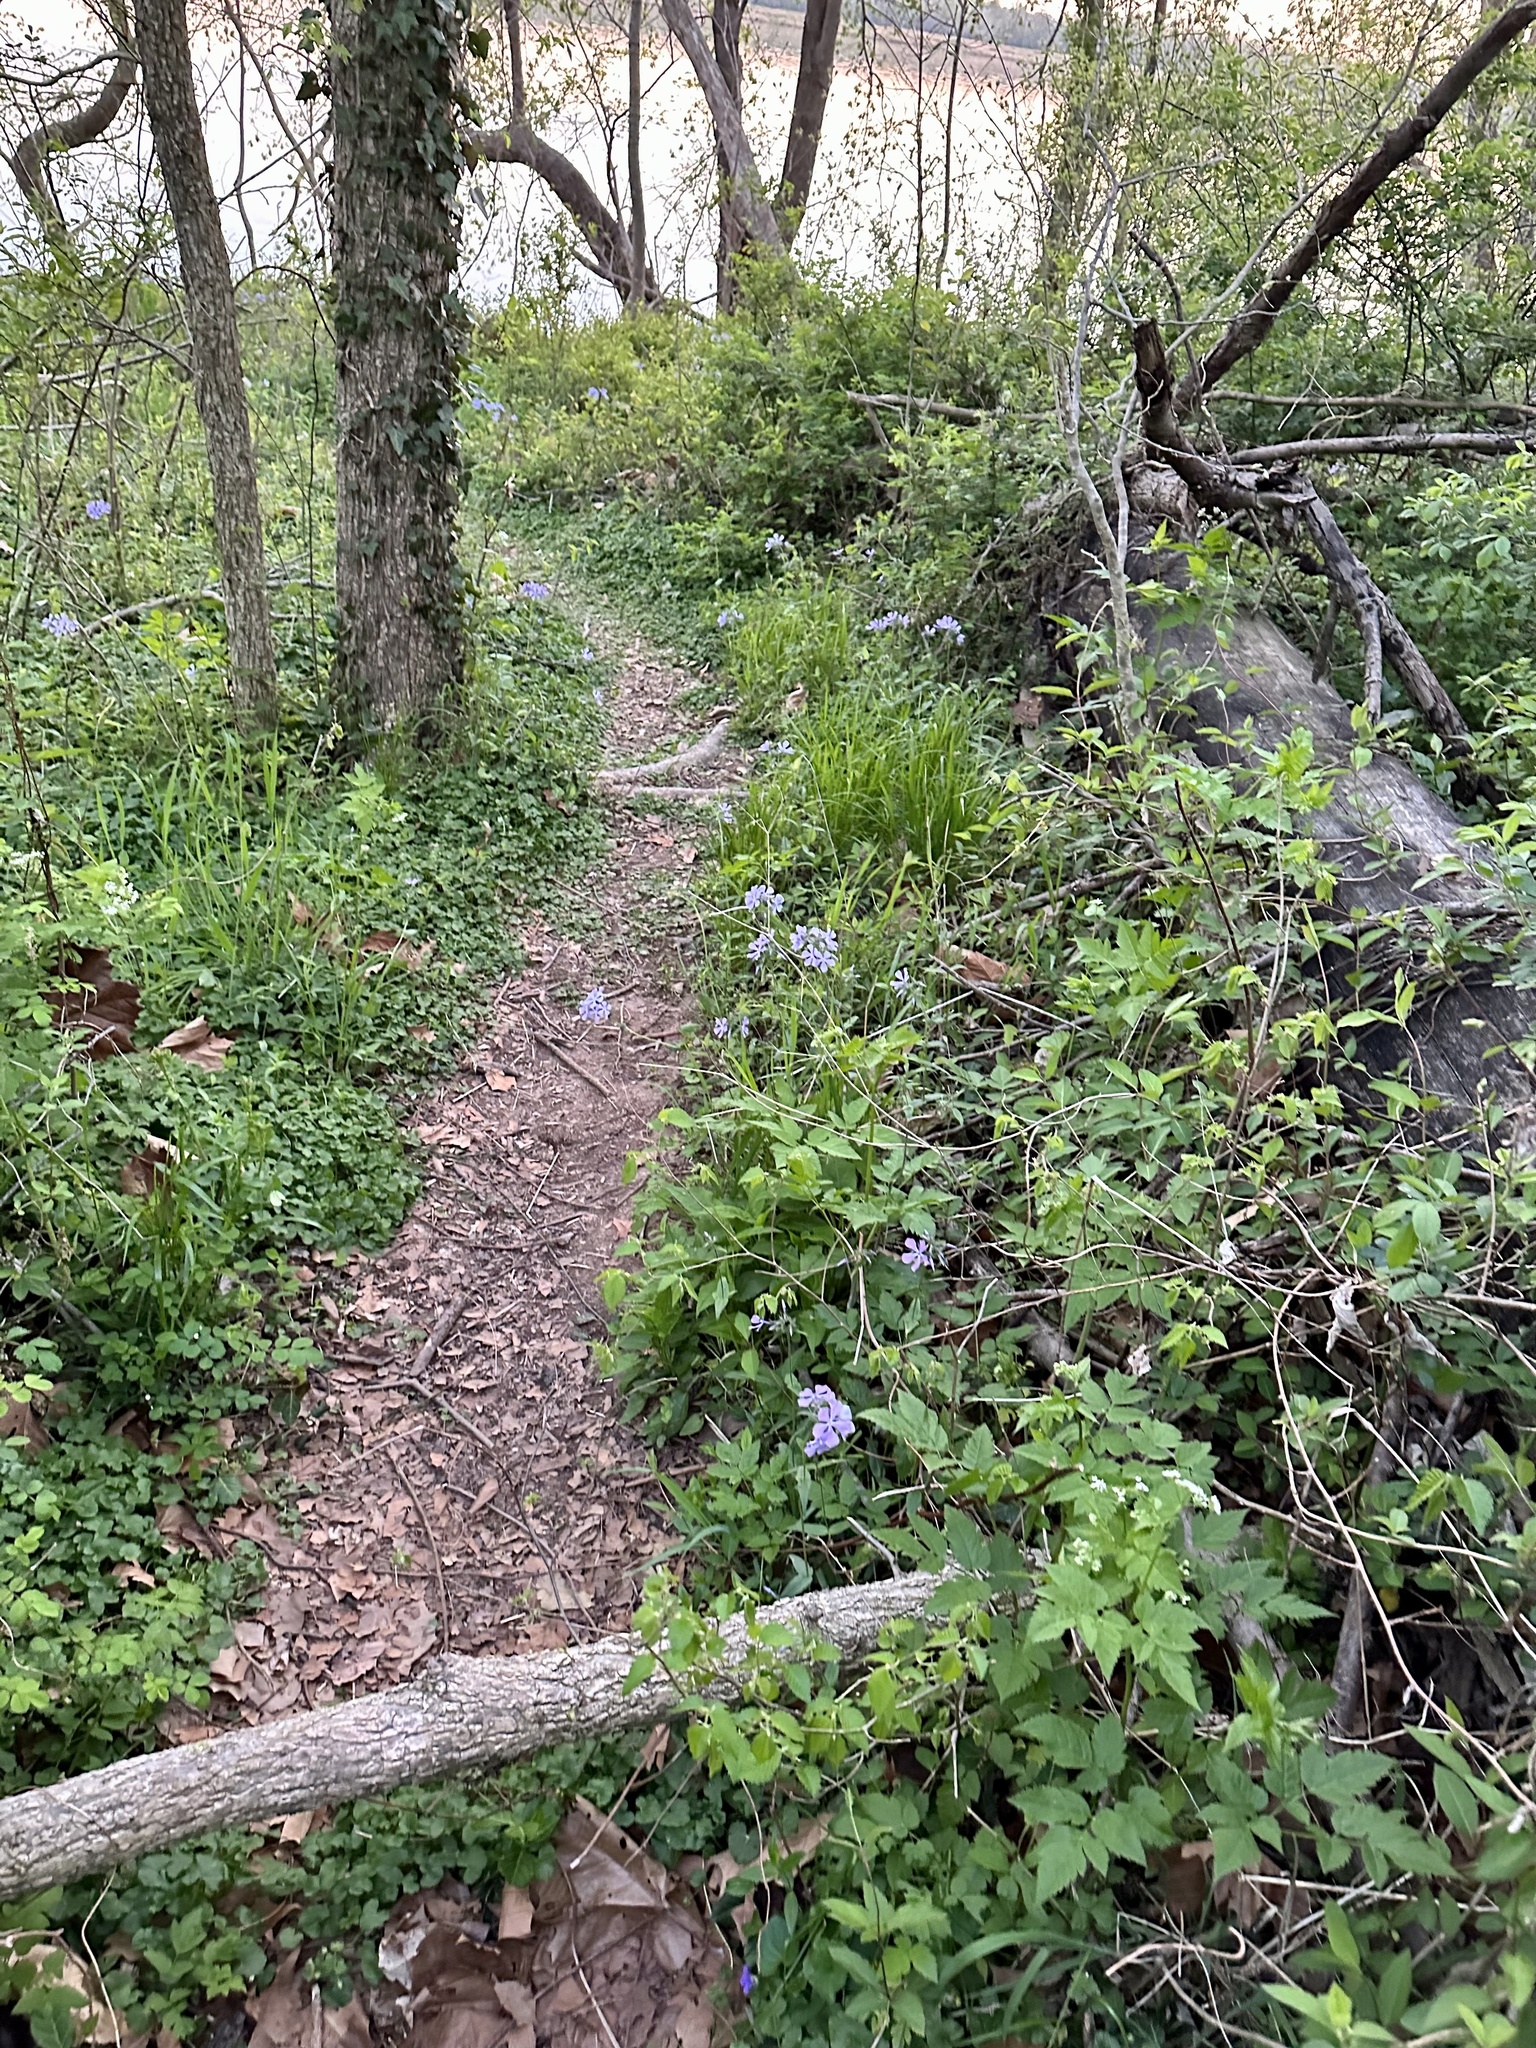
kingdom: Plantae
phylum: Tracheophyta
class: Magnoliopsida
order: Ericales
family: Polemoniaceae
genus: Phlox
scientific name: Phlox divaricata
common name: Blue phlox
